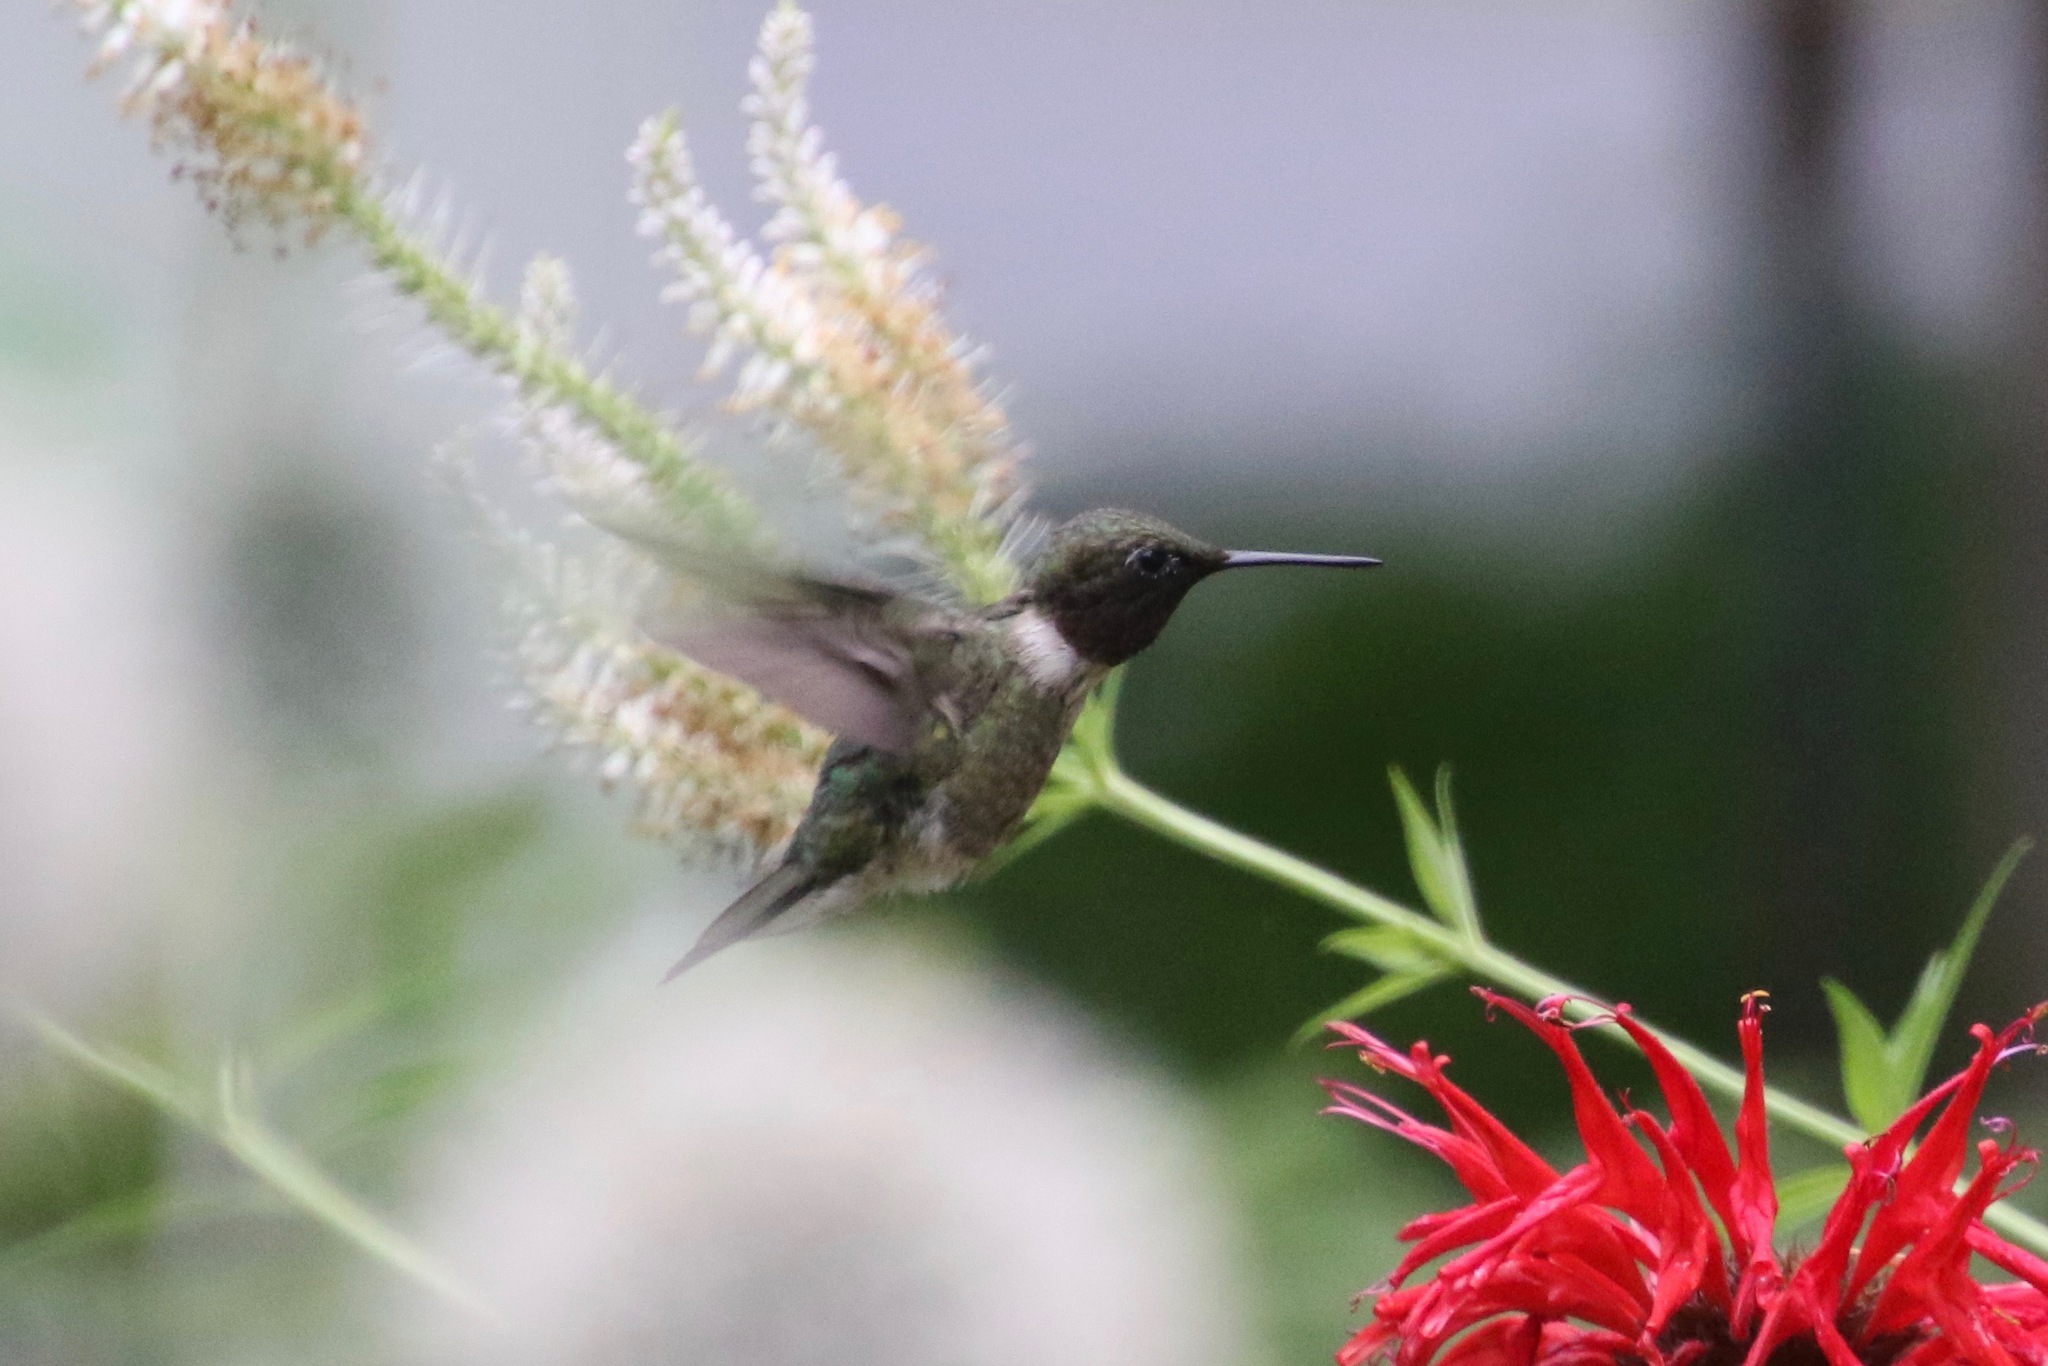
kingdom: Animalia
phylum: Chordata
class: Aves
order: Apodiformes
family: Trochilidae
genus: Archilochus
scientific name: Archilochus colubris
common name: Ruby-throated hummingbird
